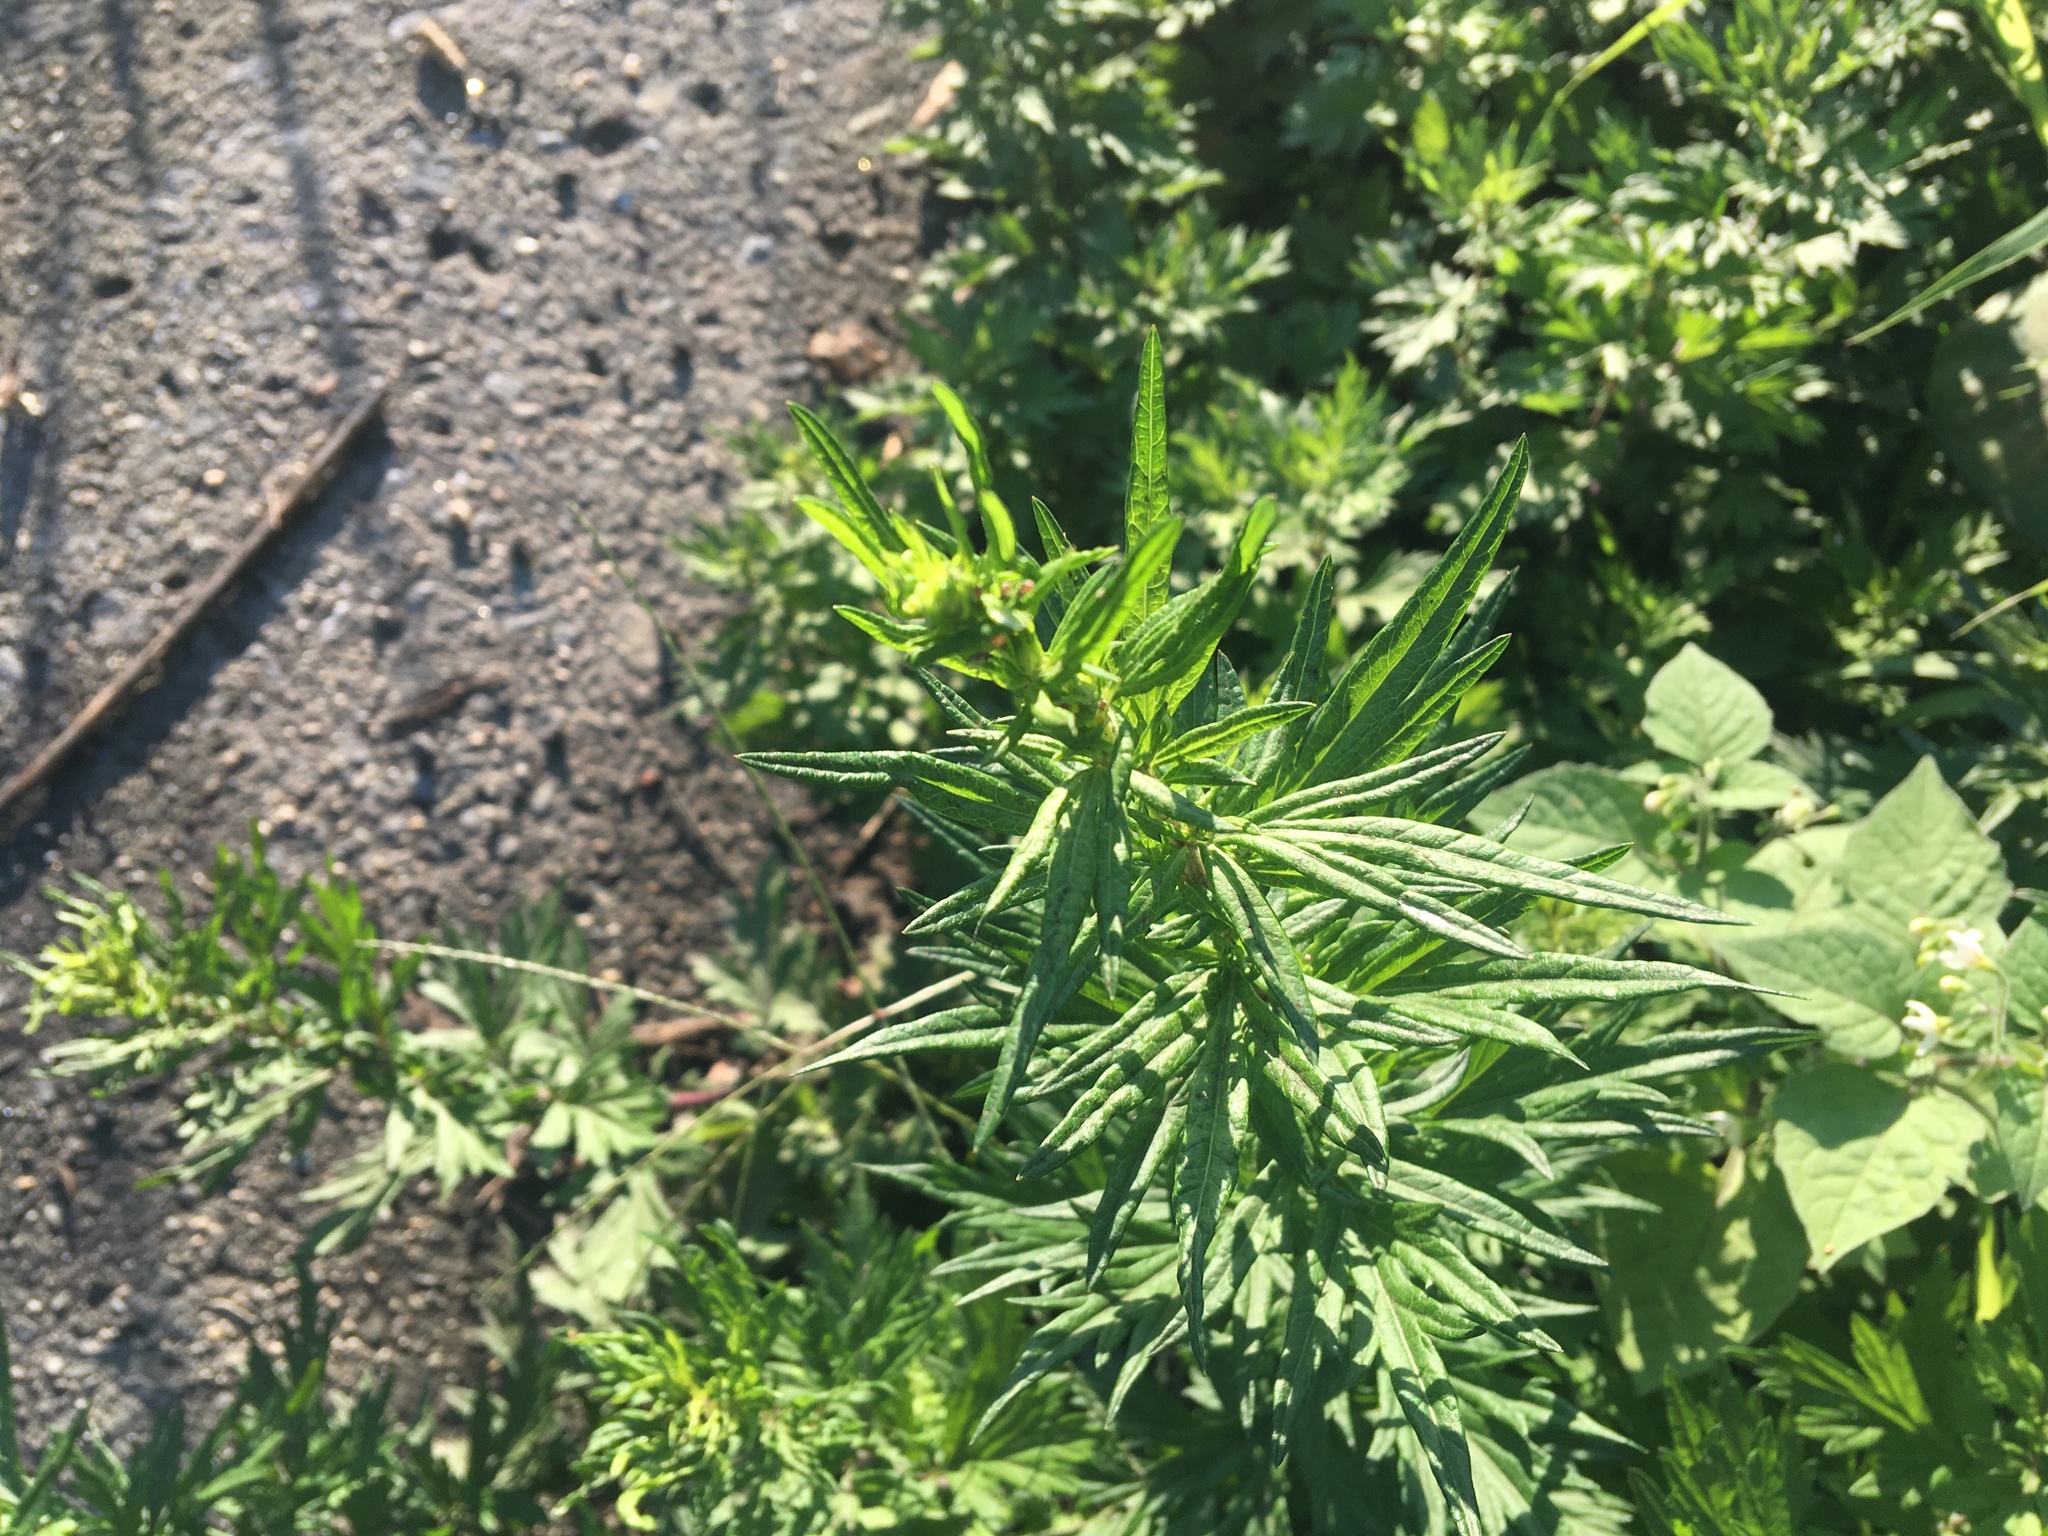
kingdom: Plantae
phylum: Tracheophyta
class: Magnoliopsida
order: Asterales
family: Asteraceae
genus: Artemisia
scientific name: Artemisia vulgaris
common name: Mugwort
